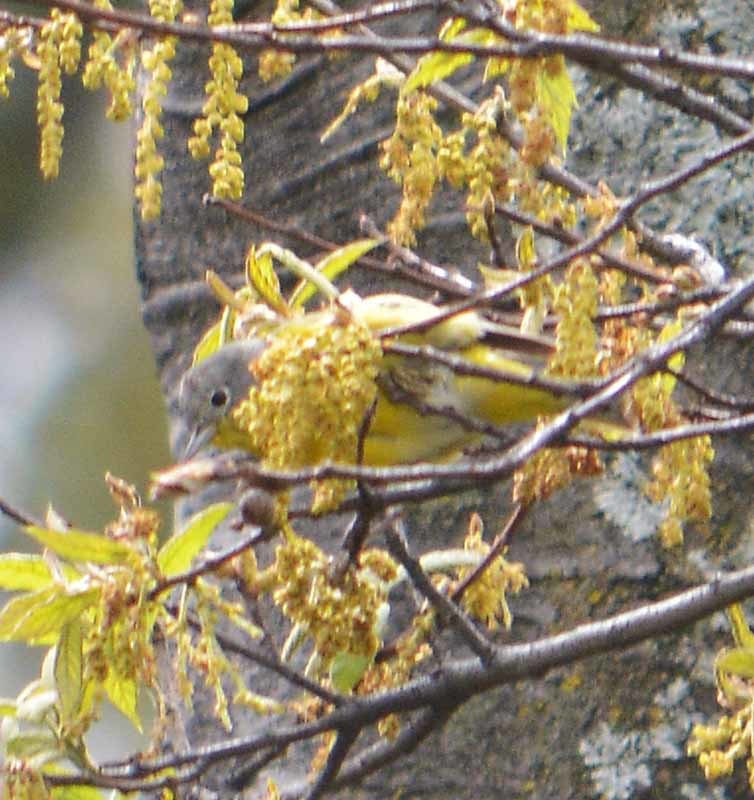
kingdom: Animalia
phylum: Chordata
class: Aves
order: Passeriformes
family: Parulidae
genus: Leiothlypis
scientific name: Leiothlypis ruficapilla
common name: Nashville warbler
